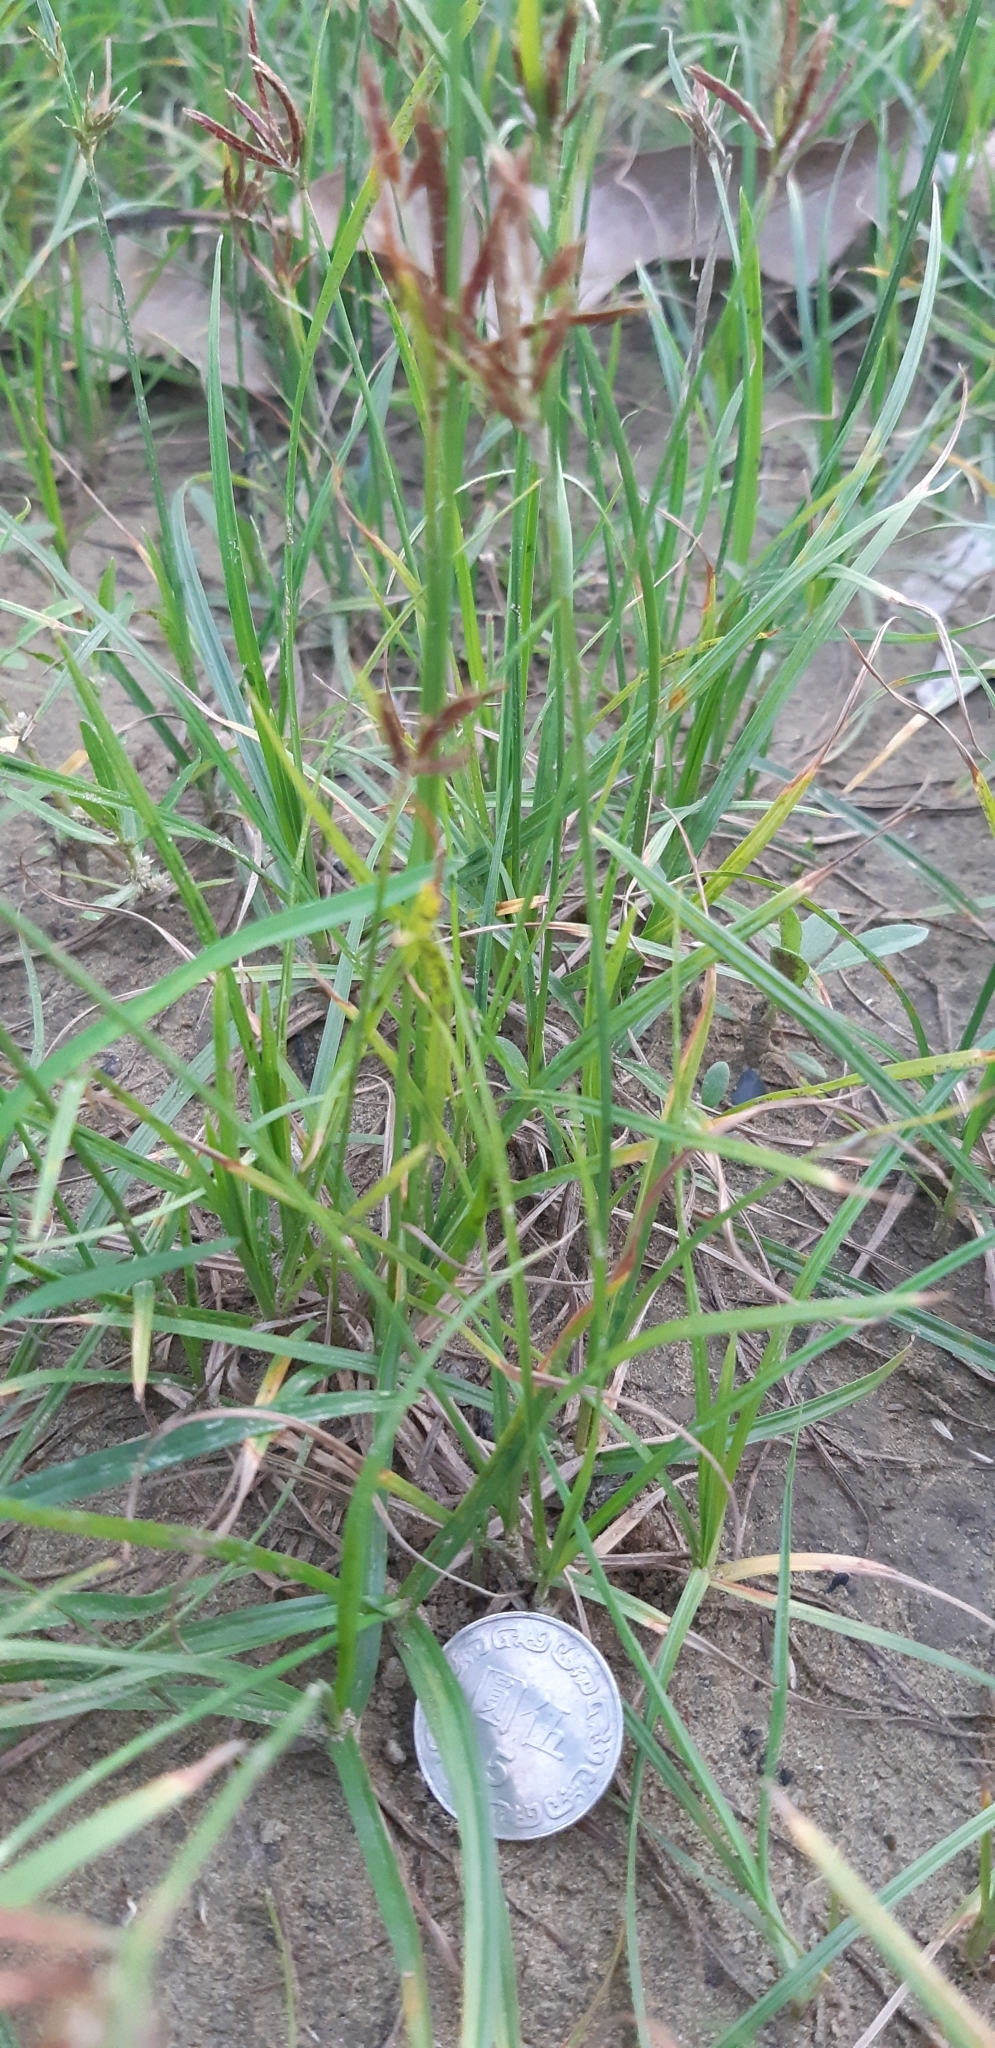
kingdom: Plantae
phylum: Tracheophyta
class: Liliopsida
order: Poales
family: Cyperaceae
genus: Cyperus
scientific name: Cyperus rotundus
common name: Nutgrass
